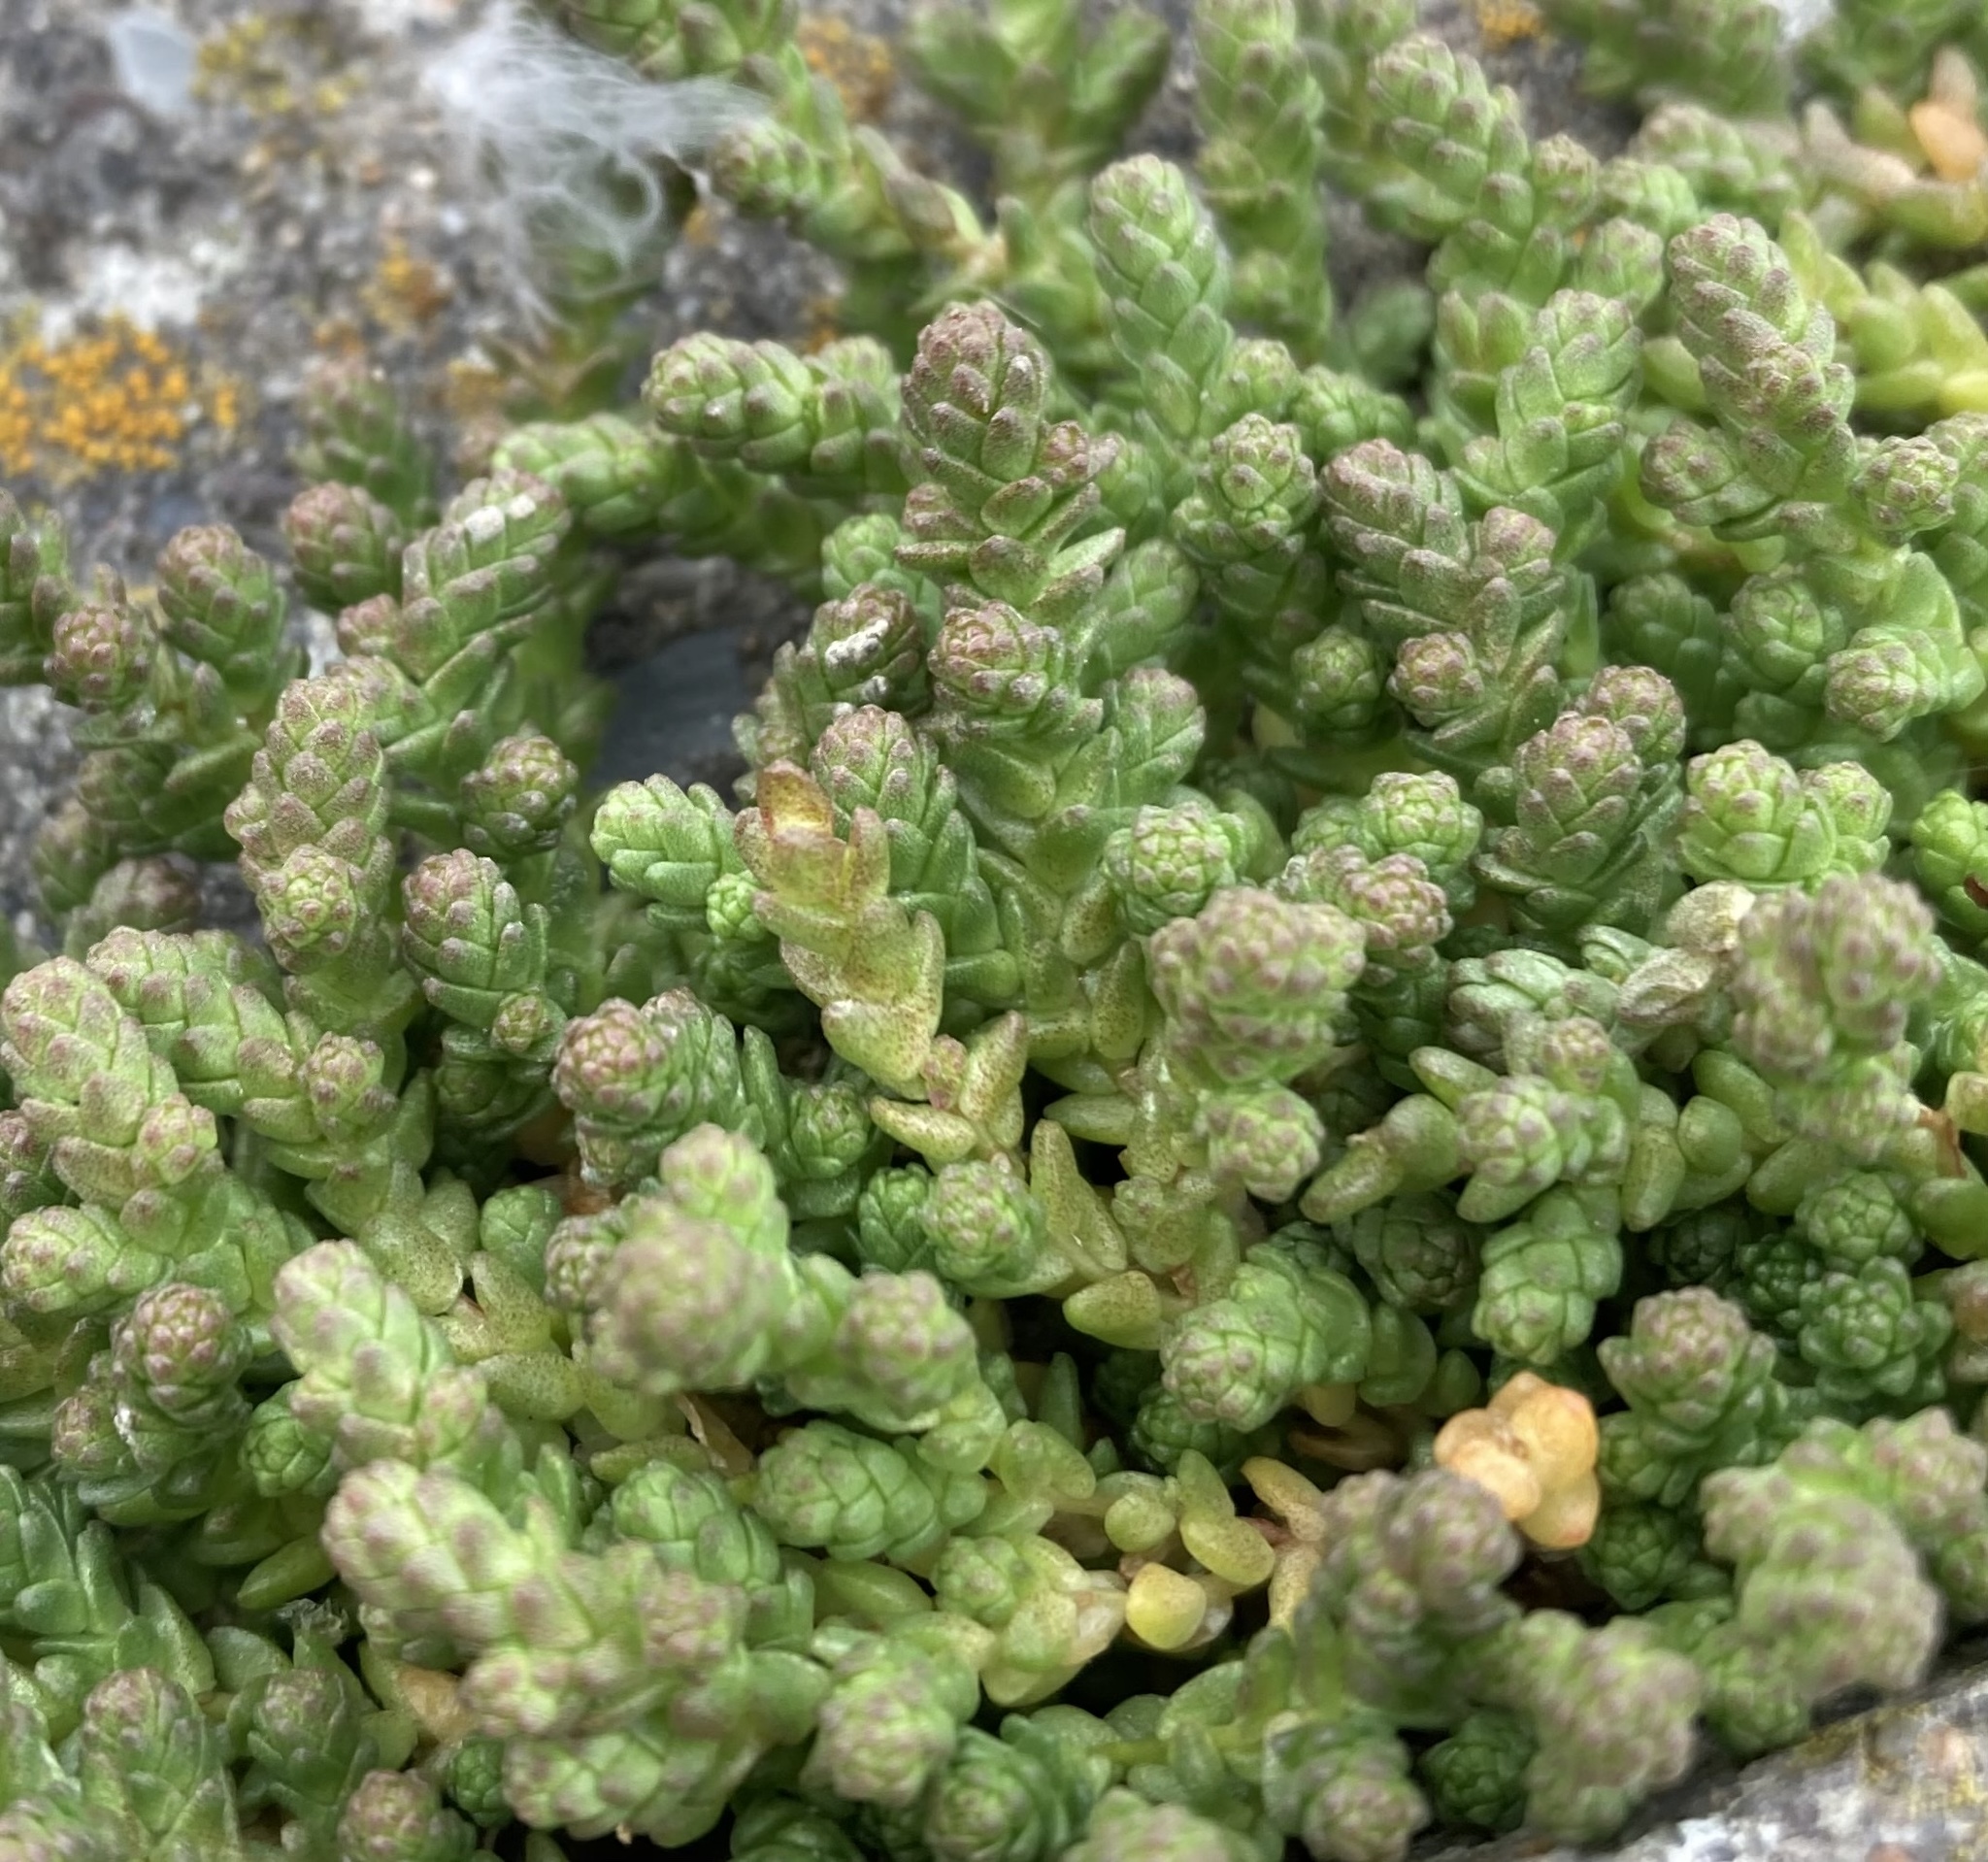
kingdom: Plantae
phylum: Tracheophyta
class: Magnoliopsida
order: Saxifragales
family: Crassulaceae
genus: Sedum
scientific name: Sedum acre
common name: Biting stonecrop
